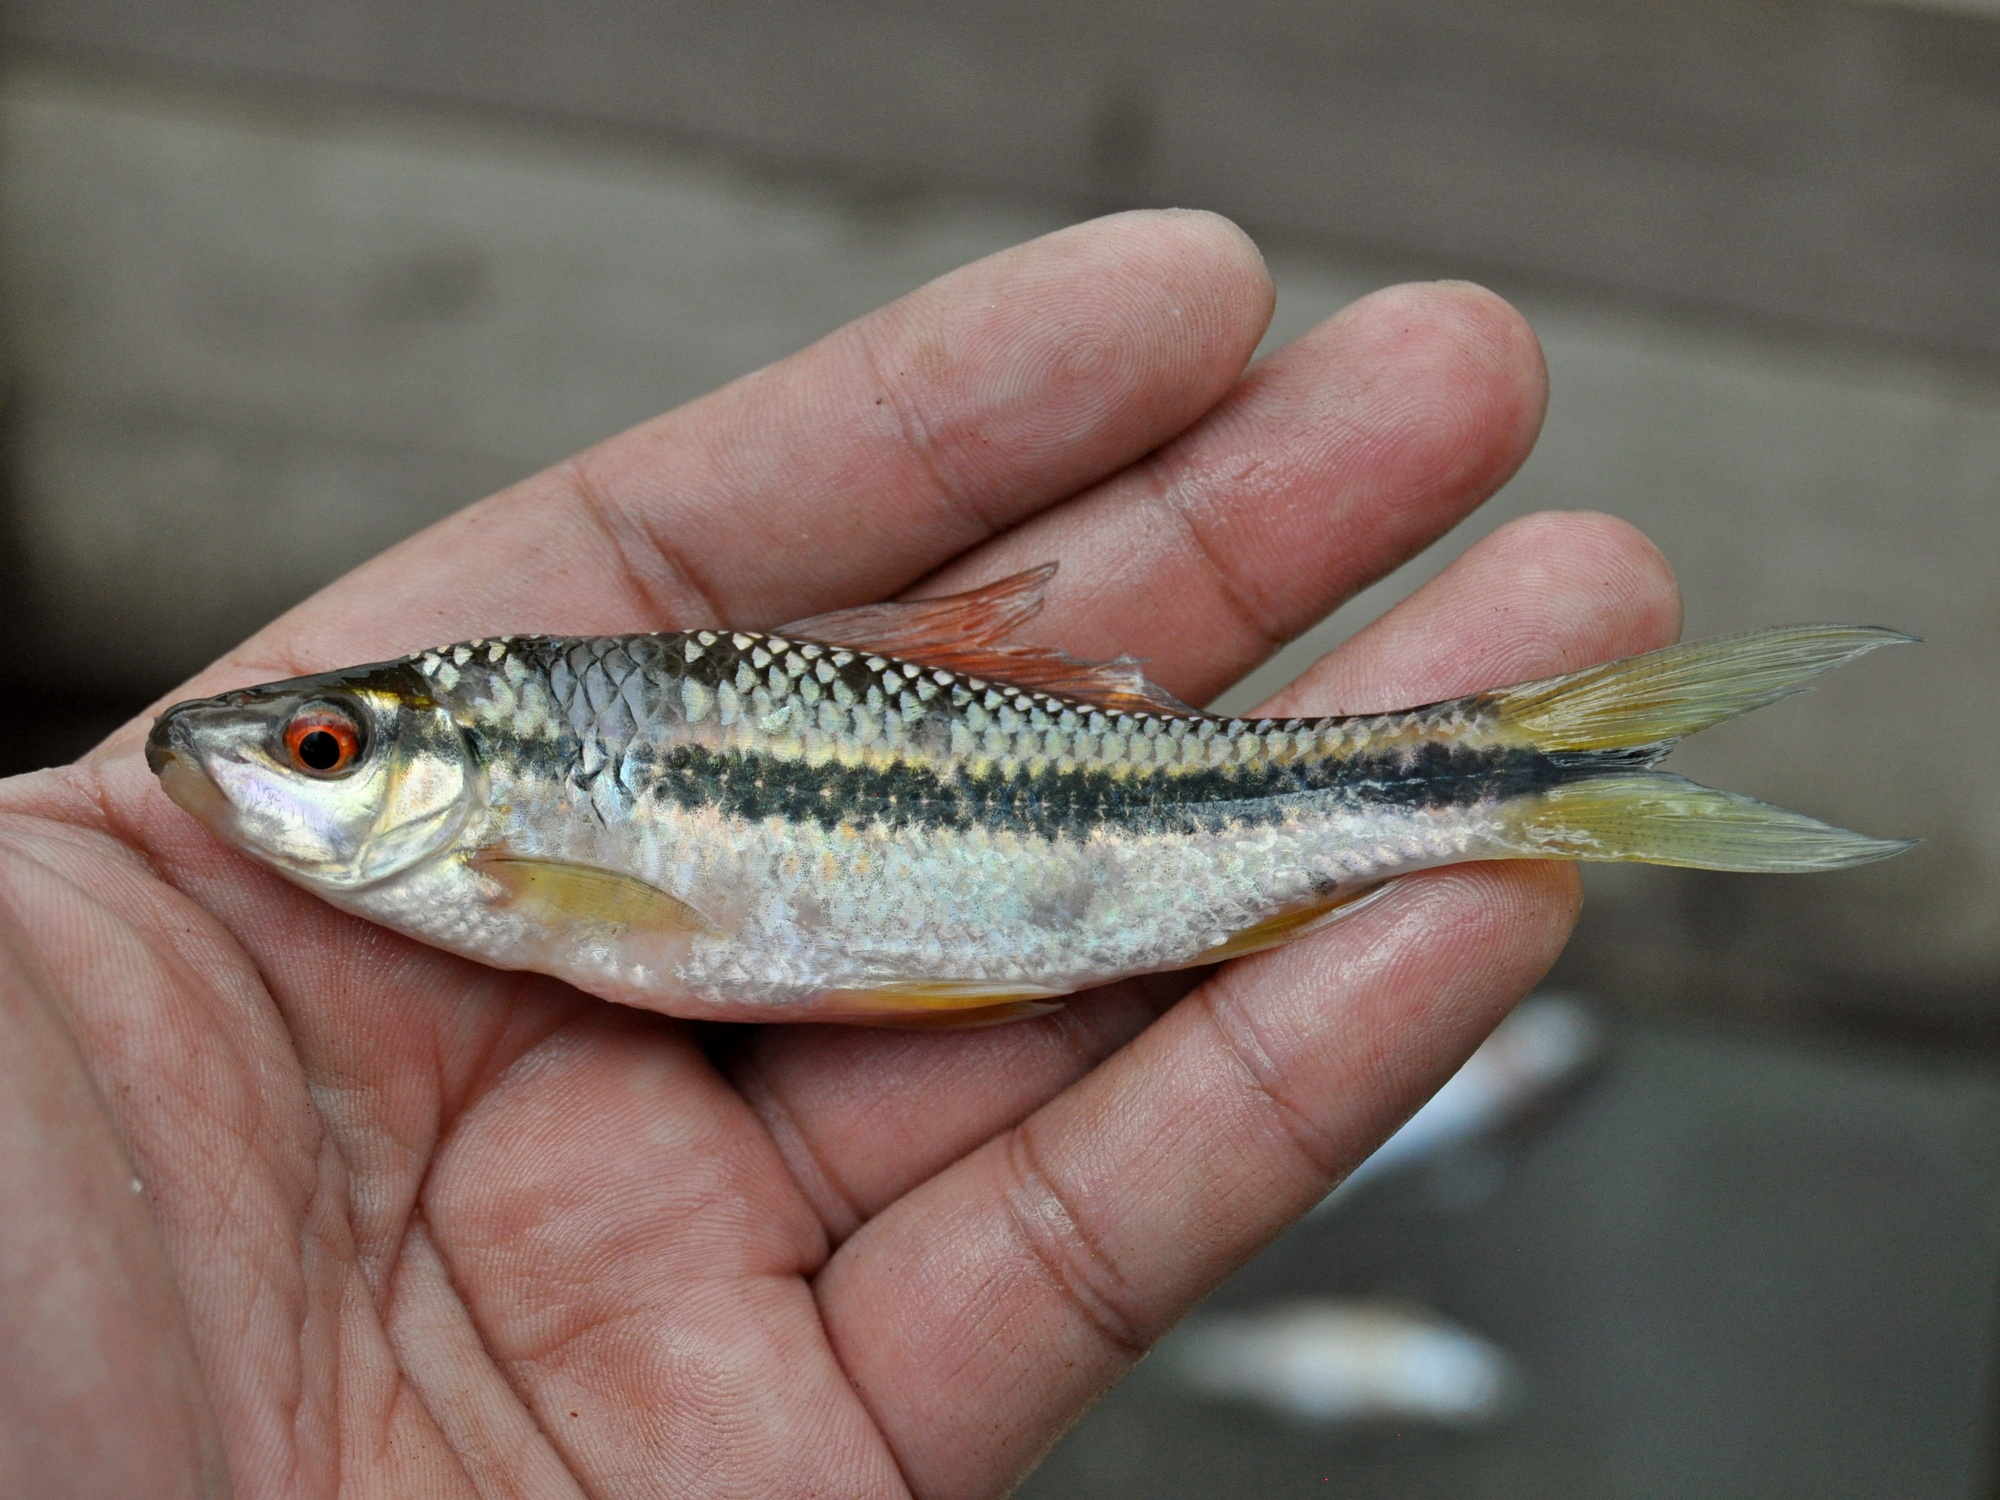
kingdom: Animalia
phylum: Chordata
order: Cypriniformes
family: Cyprinidae
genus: Osteochilus
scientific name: Osteochilus waandersii
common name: Waandersii's hard-lipped barb
